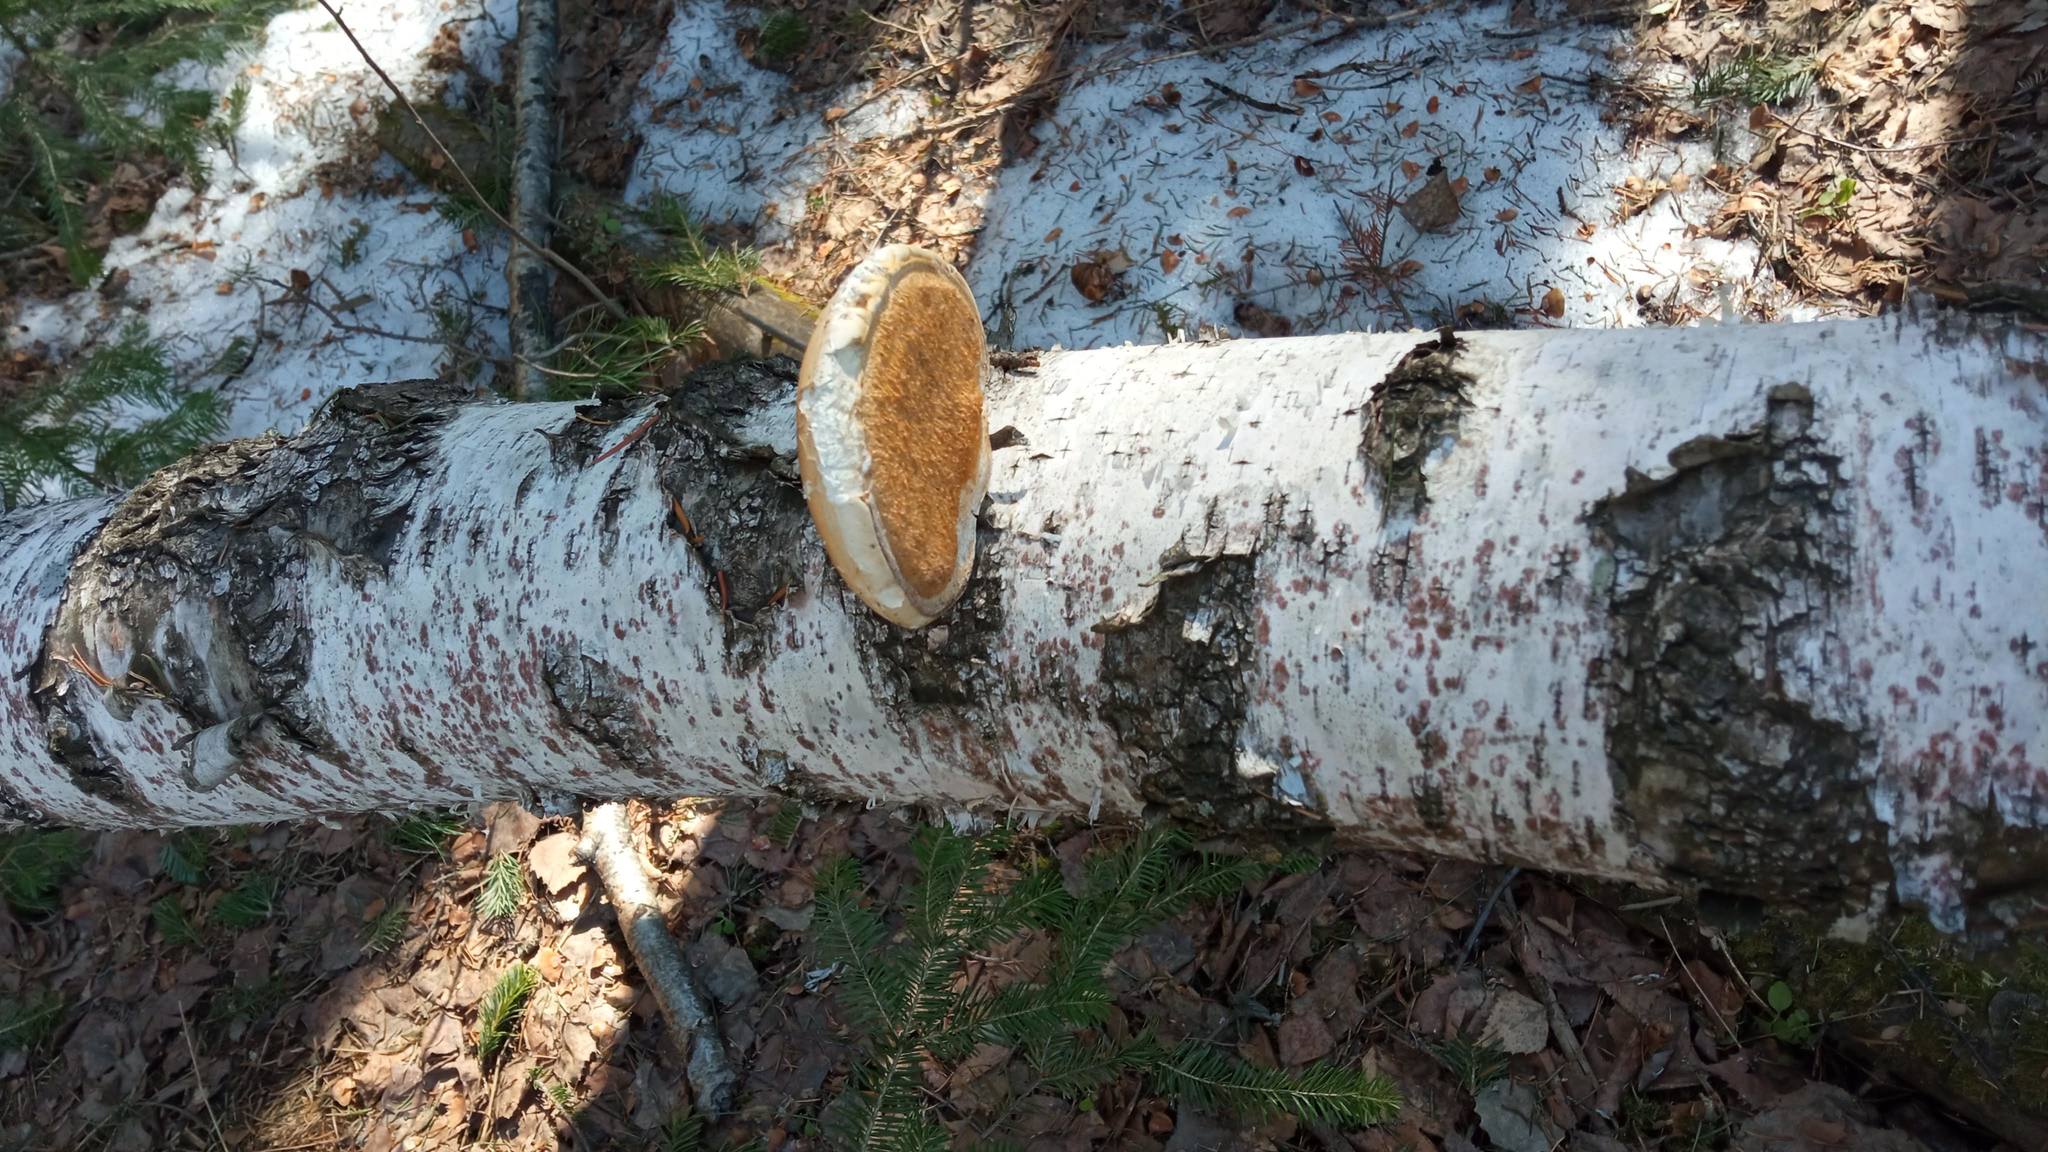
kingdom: Fungi
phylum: Basidiomycota
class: Agaricomycetes
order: Polyporales
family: Fomitopsidaceae
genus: Fomitopsis
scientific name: Fomitopsis betulina
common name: Birch polypore
